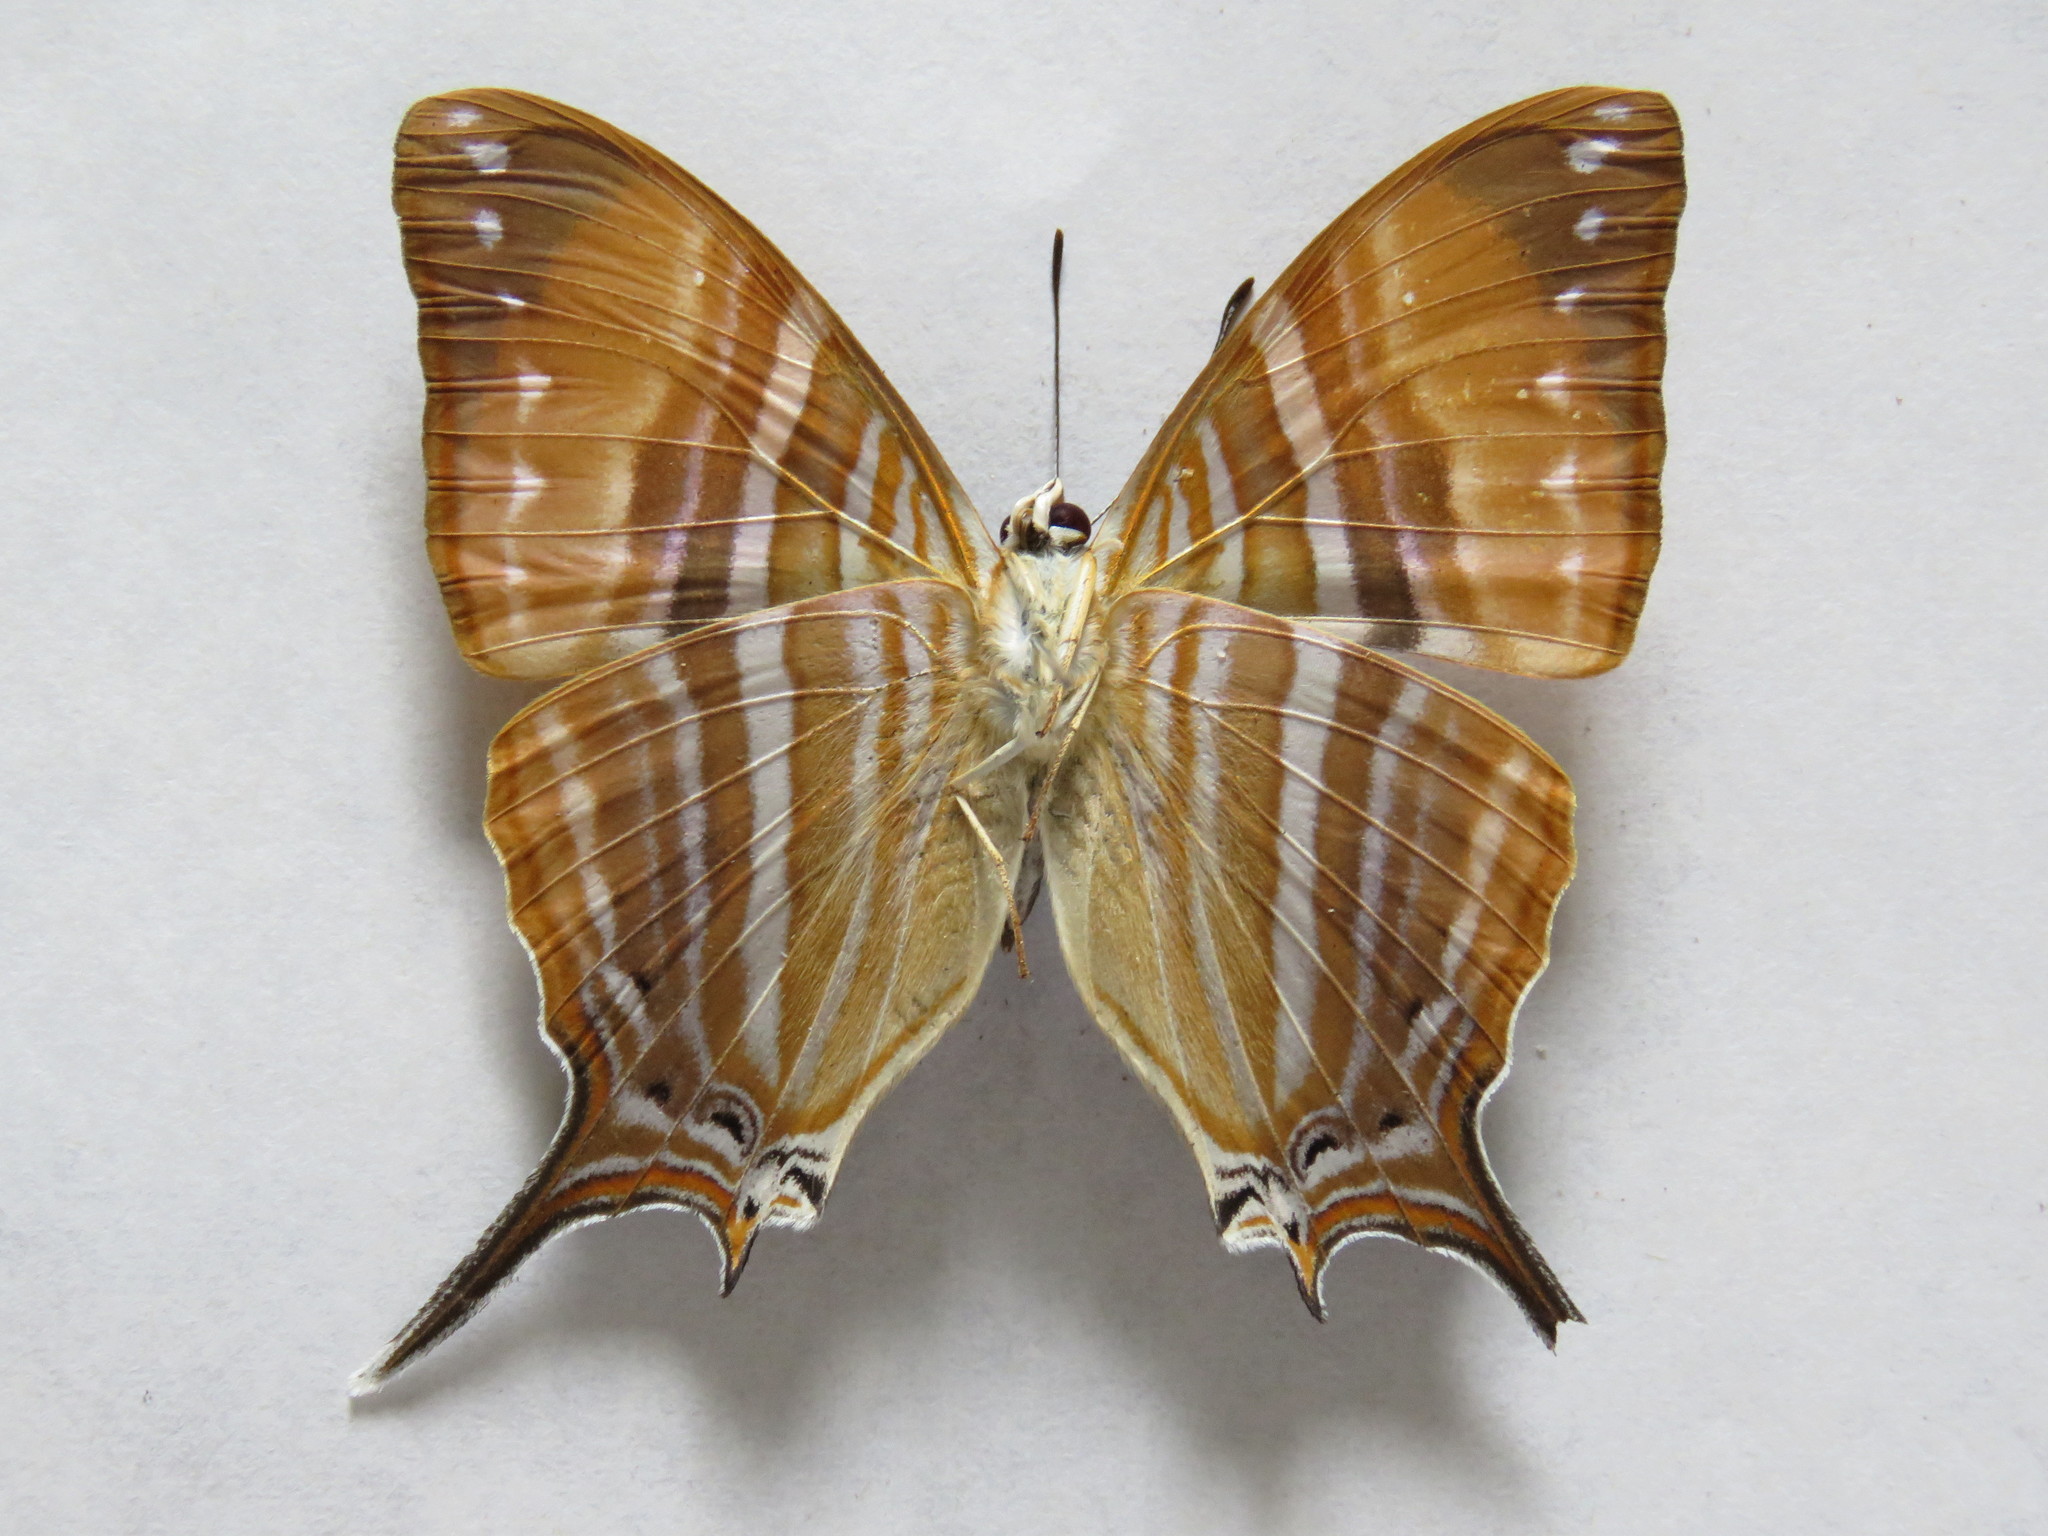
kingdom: Animalia
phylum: Arthropoda
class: Insecta
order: Lepidoptera
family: Nymphalidae
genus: Marpesia
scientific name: Marpesia marcella
